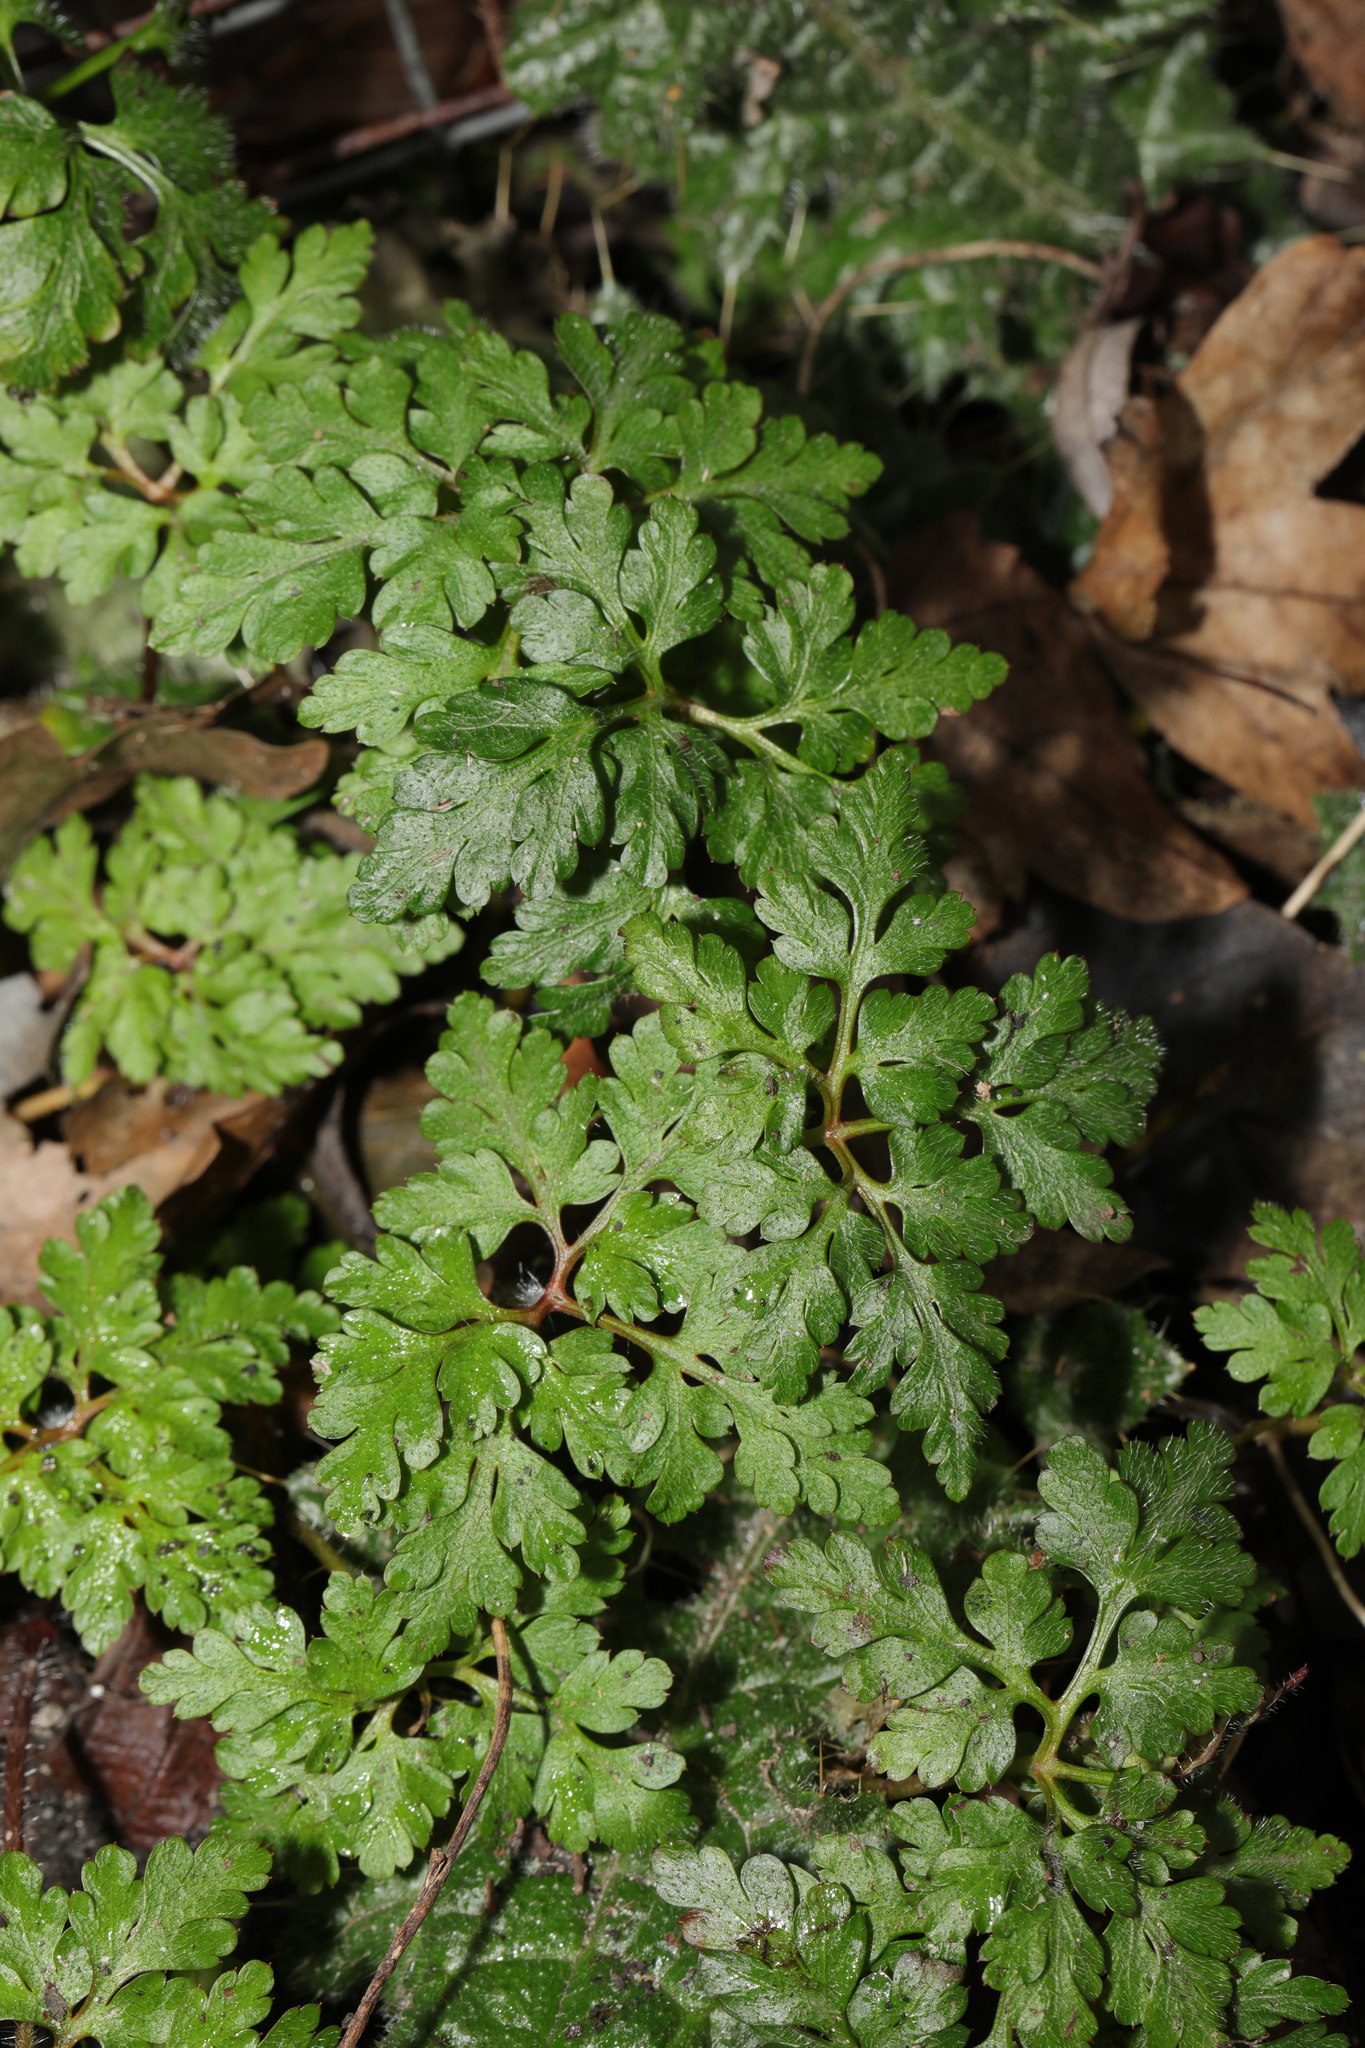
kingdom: Plantae
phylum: Tracheophyta
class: Magnoliopsida
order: Geraniales
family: Geraniaceae
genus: Geranium
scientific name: Geranium robertianum
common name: Herb-robert
